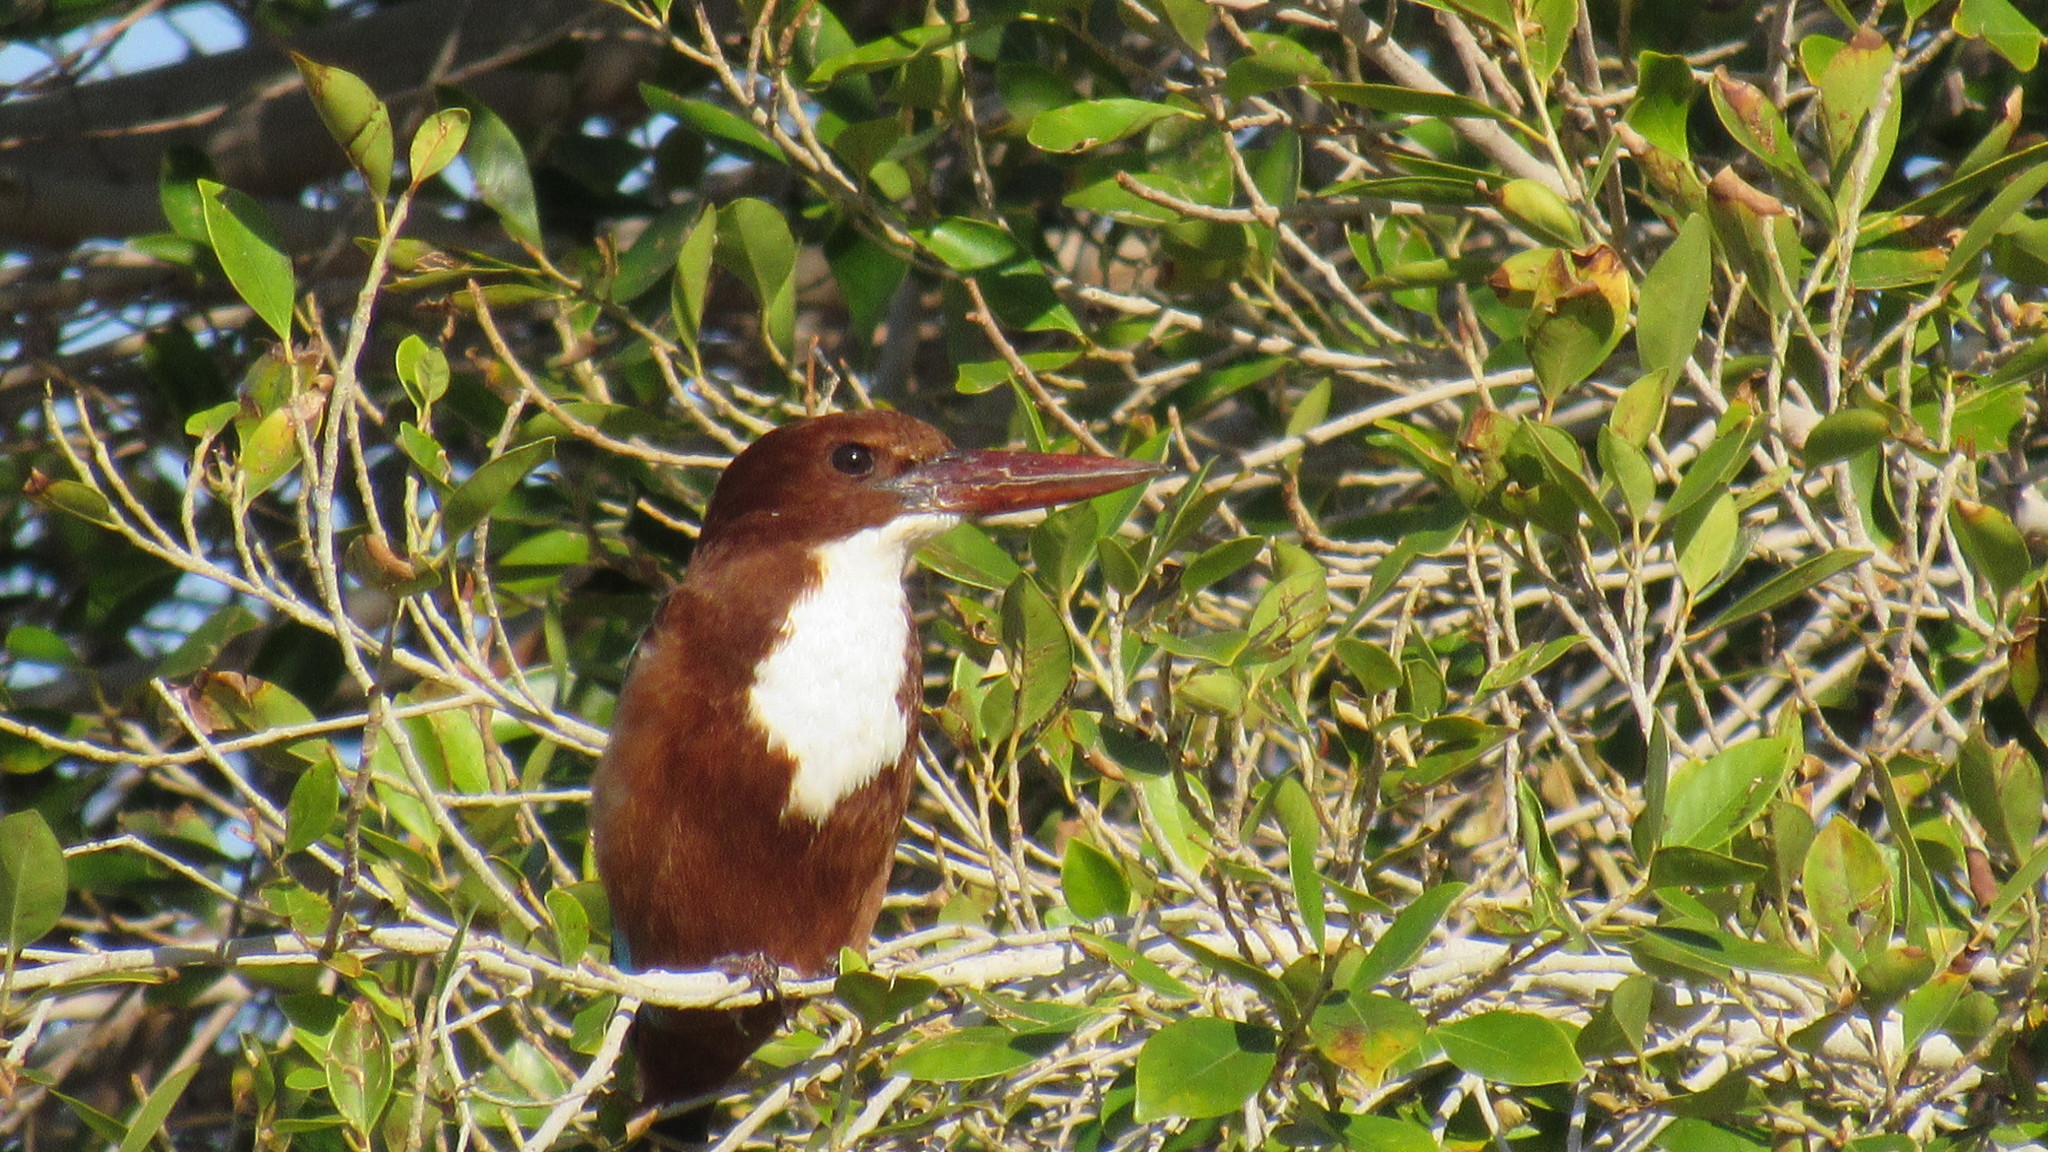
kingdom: Animalia
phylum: Chordata
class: Aves
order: Coraciiformes
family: Alcedinidae
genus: Halcyon
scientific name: Halcyon smyrnensis
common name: White-throated kingfisher
